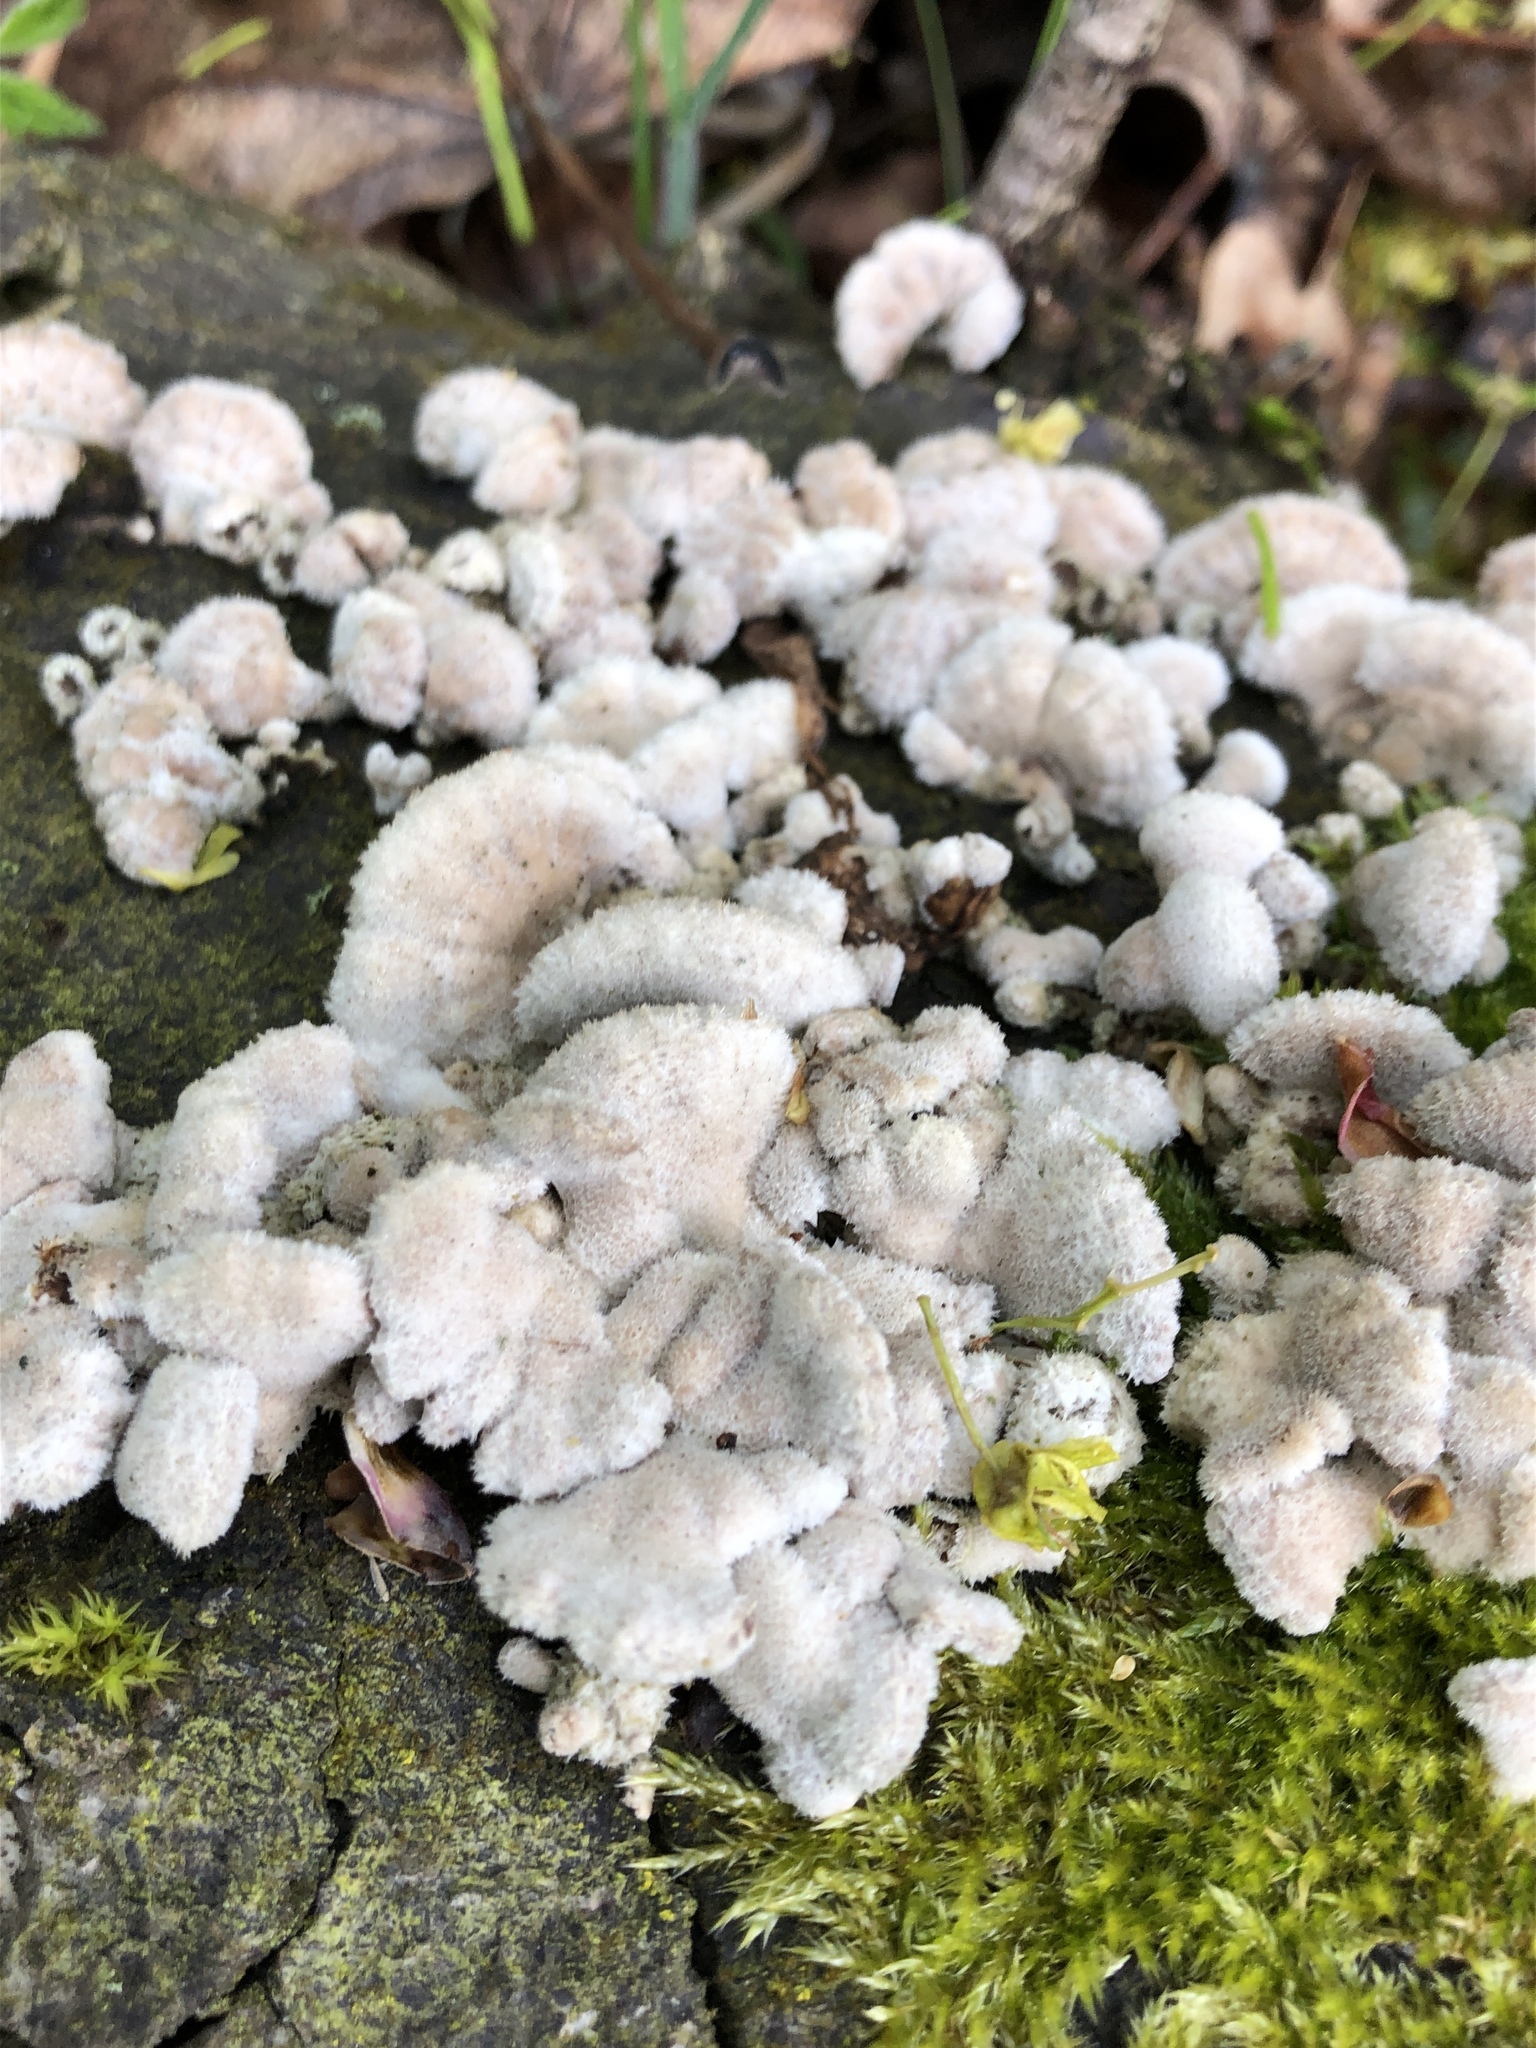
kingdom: Fungi
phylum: Basidiomycota
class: Agaricomycetes
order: Agaricales
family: Schizophyllaceae
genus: Schizophyllum
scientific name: Schizophyllum commune
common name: Common porecrust
